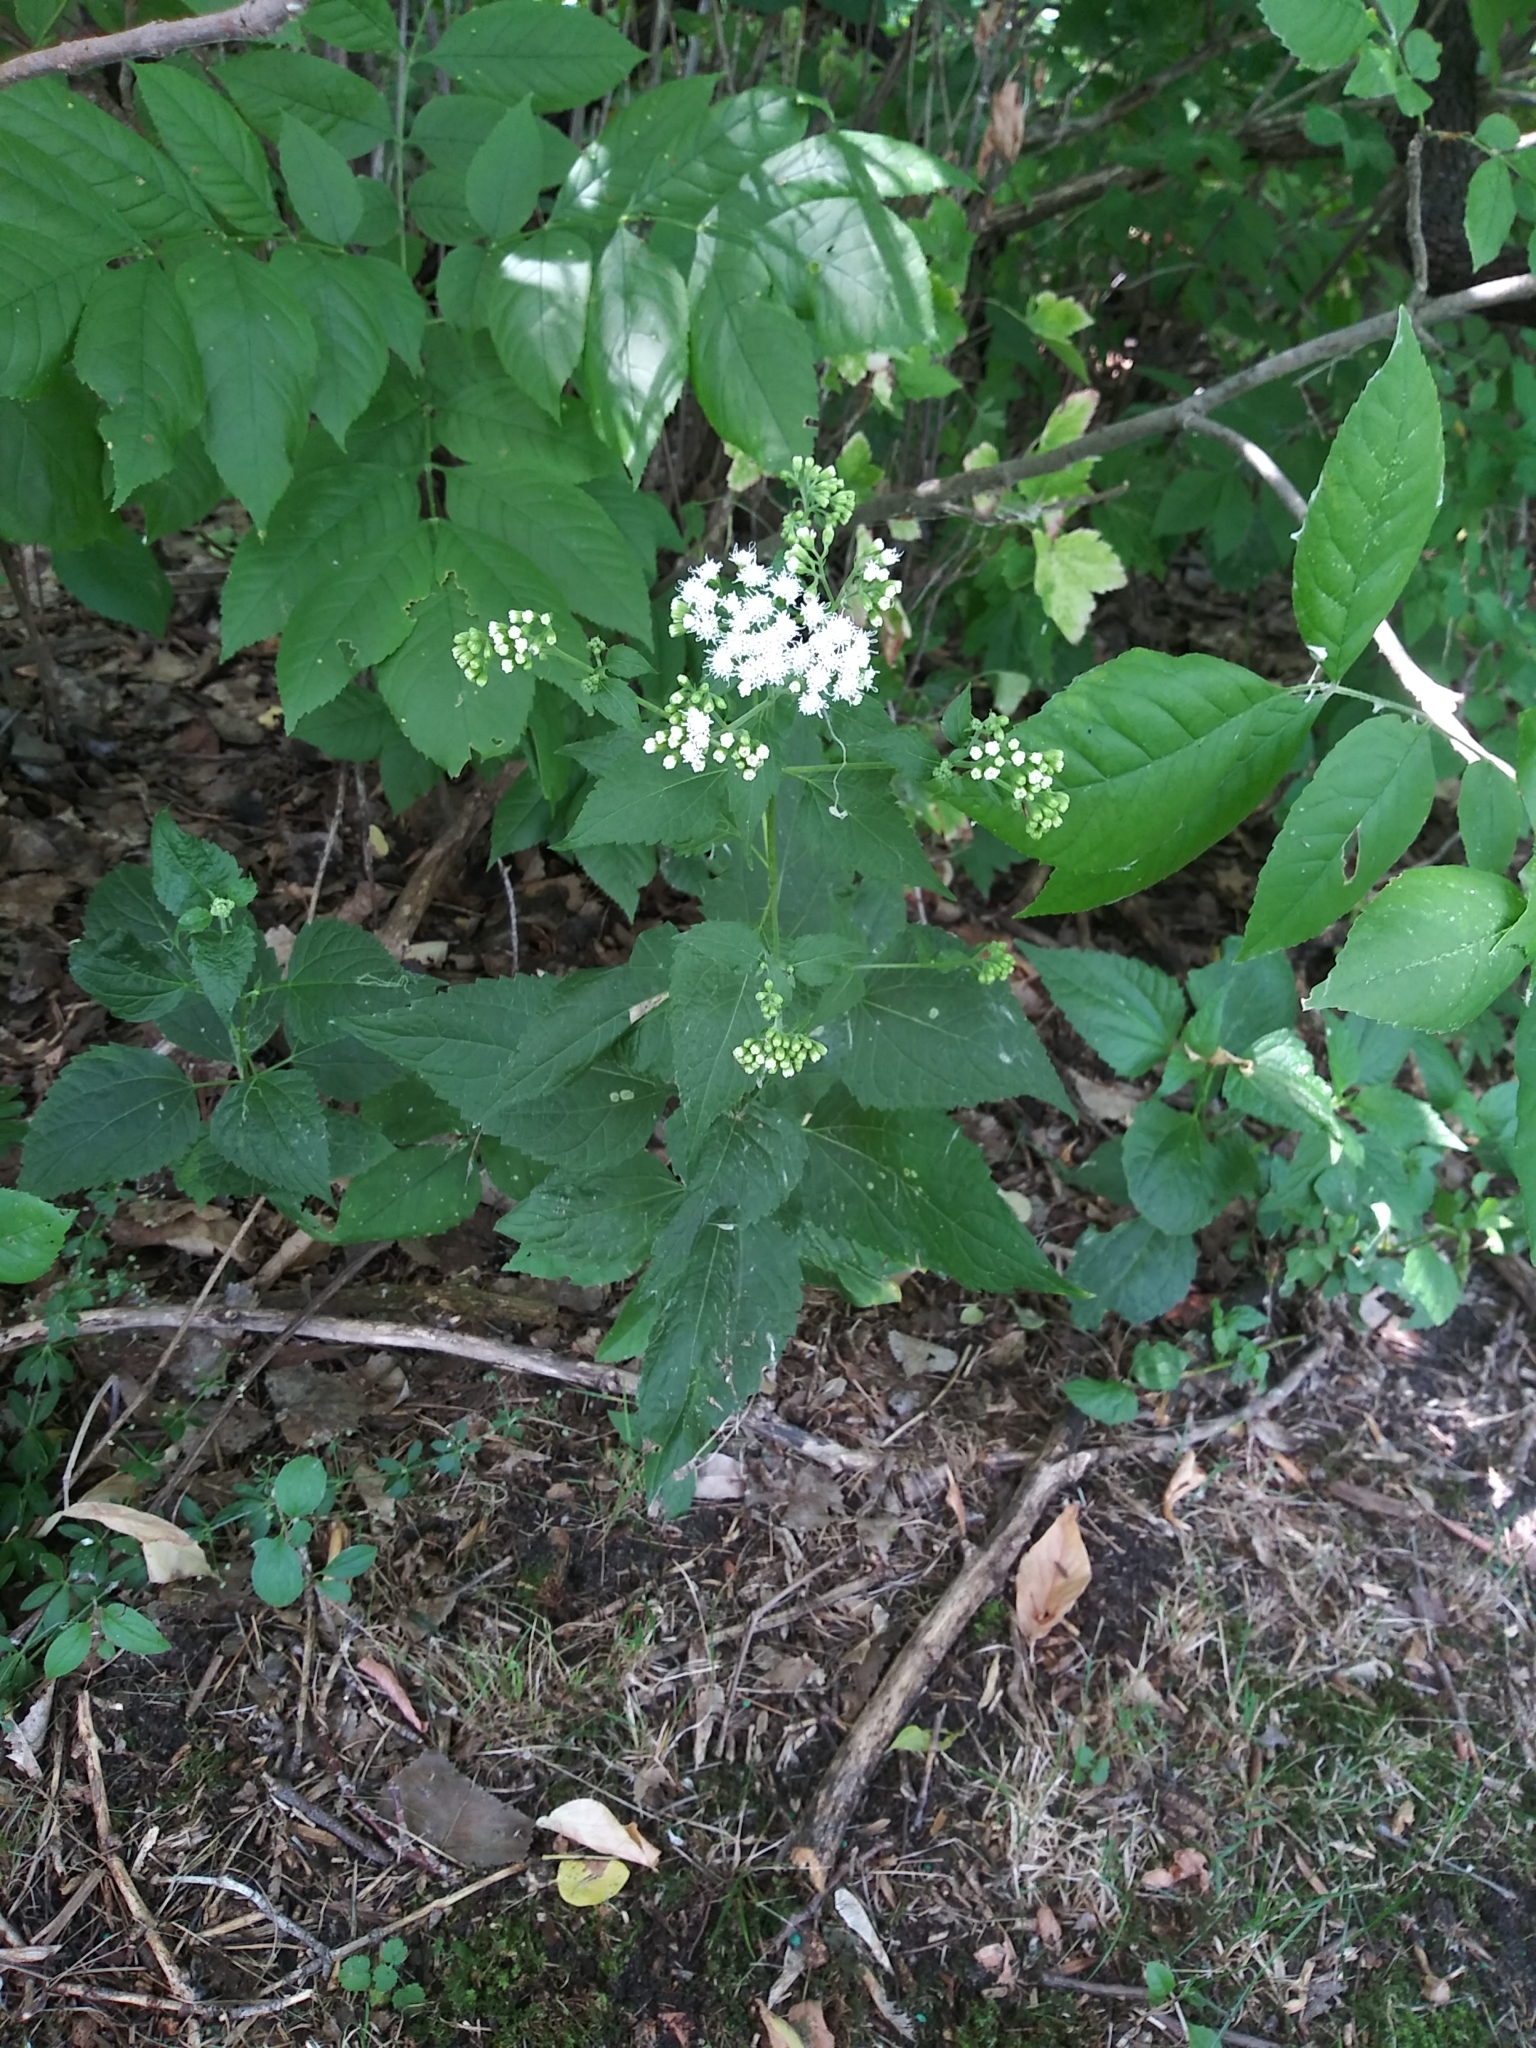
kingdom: Plantae
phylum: Tracheophyta
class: Magnoliopsida
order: Asterales
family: Asteraceae
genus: Ageratina
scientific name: Ageratina altissima
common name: White snakeroot
